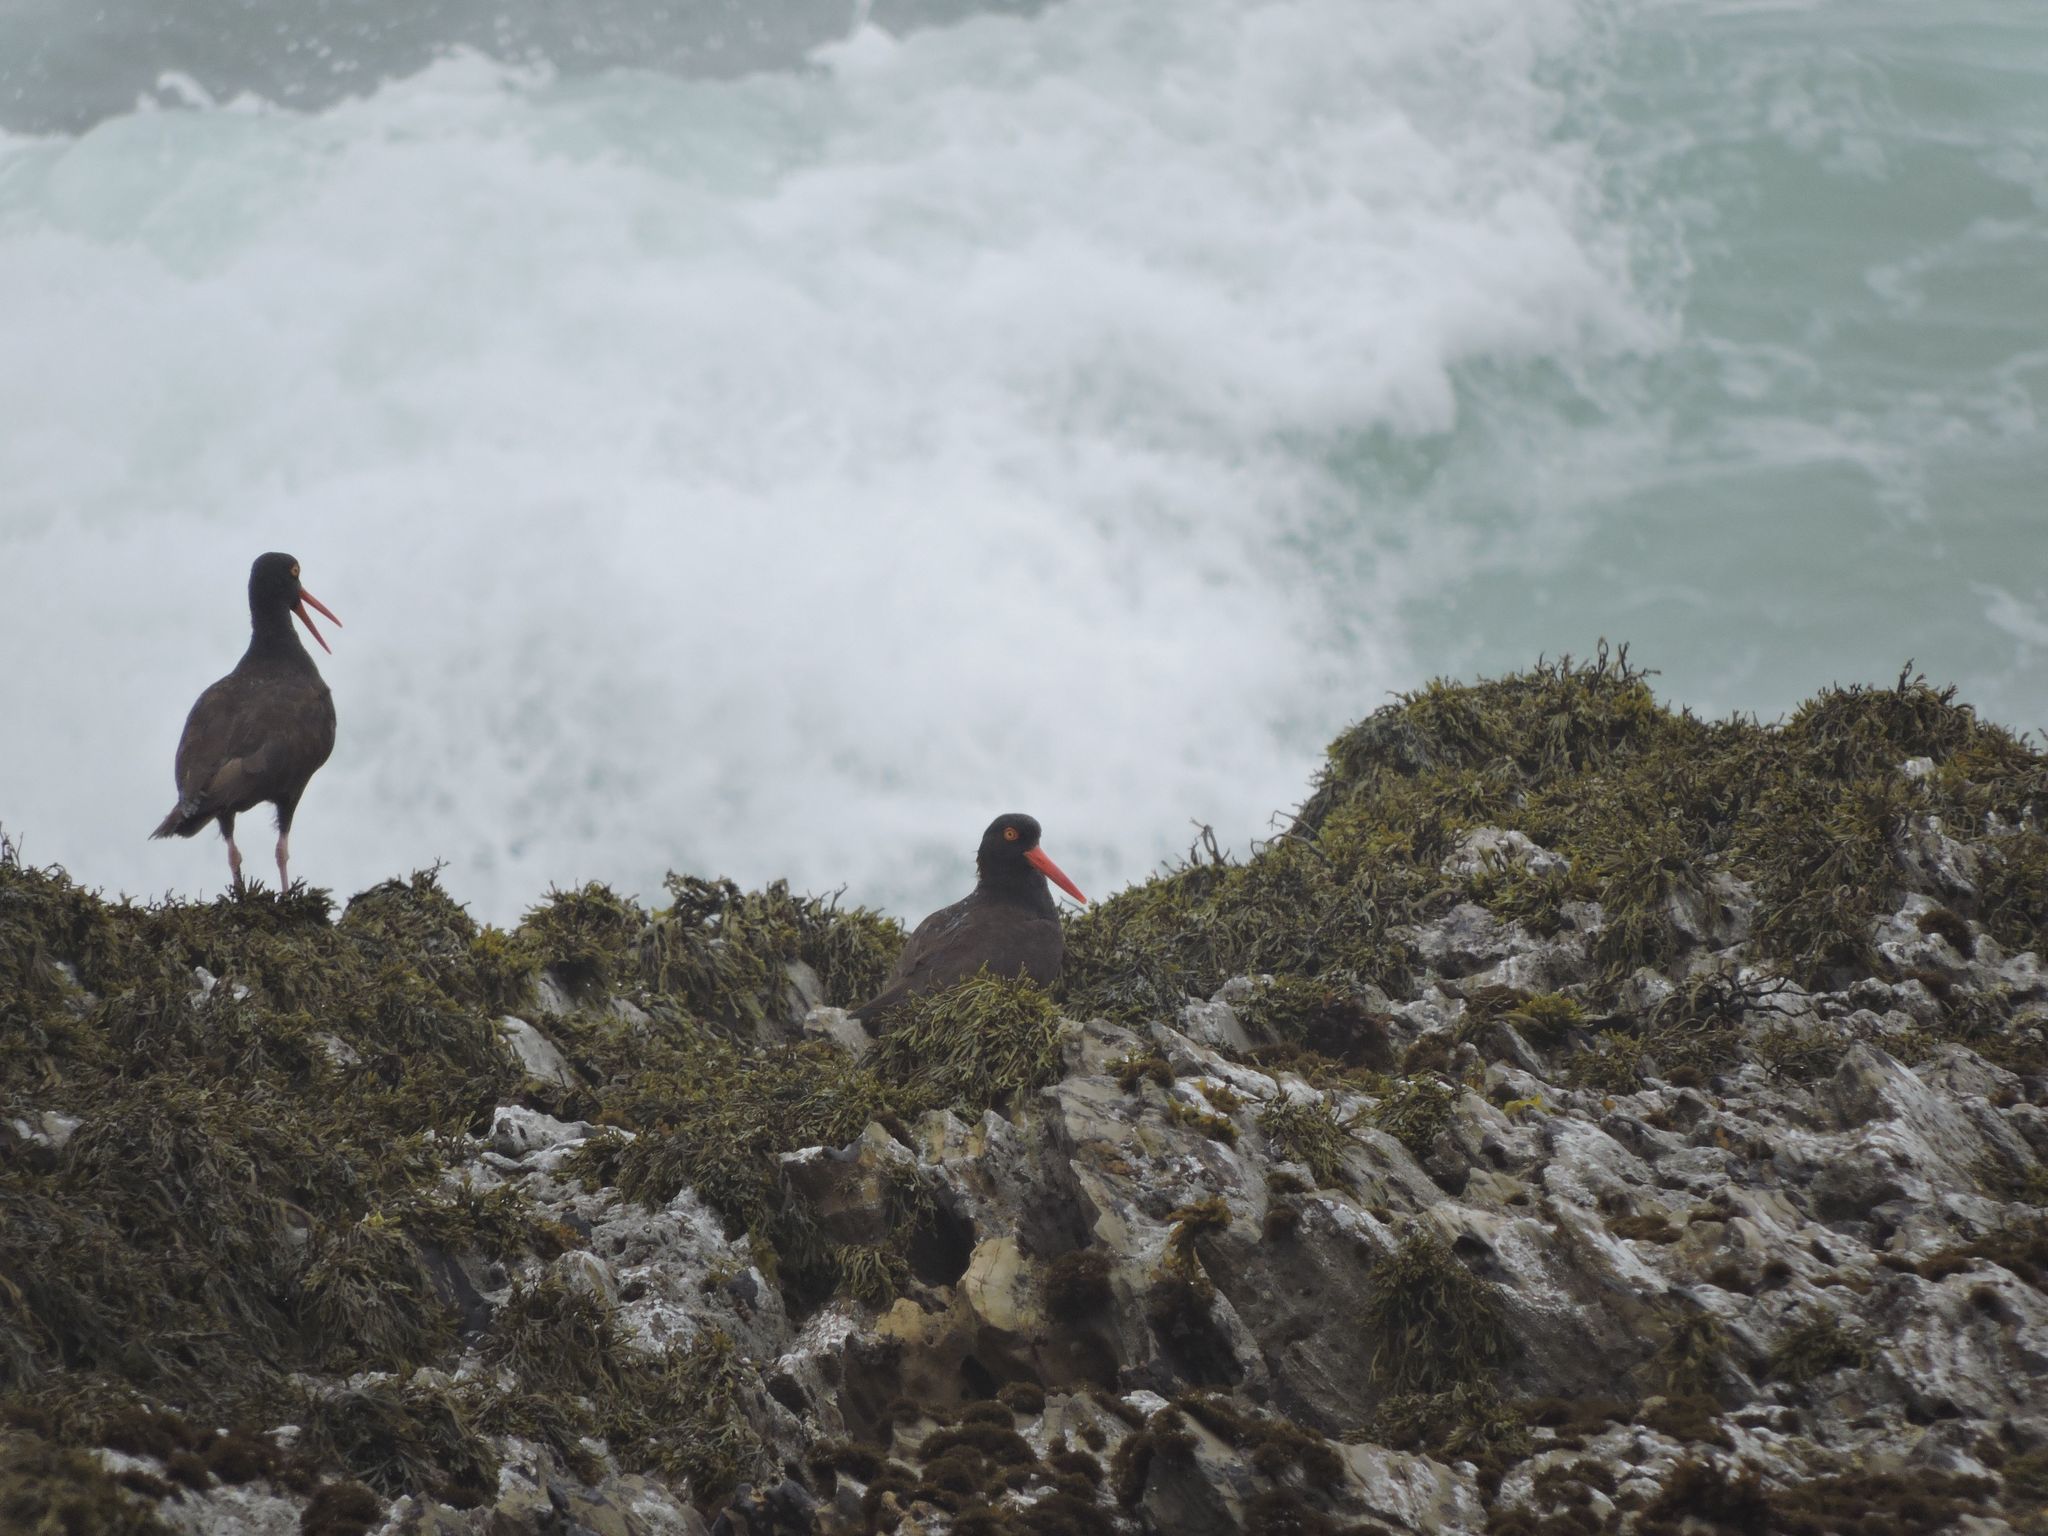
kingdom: Animalia
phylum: Chordata
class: Aves
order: Charadriiformes
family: Haematopodidae
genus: Haematopus
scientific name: Haematopus bachmani
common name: Black oystercatcher
